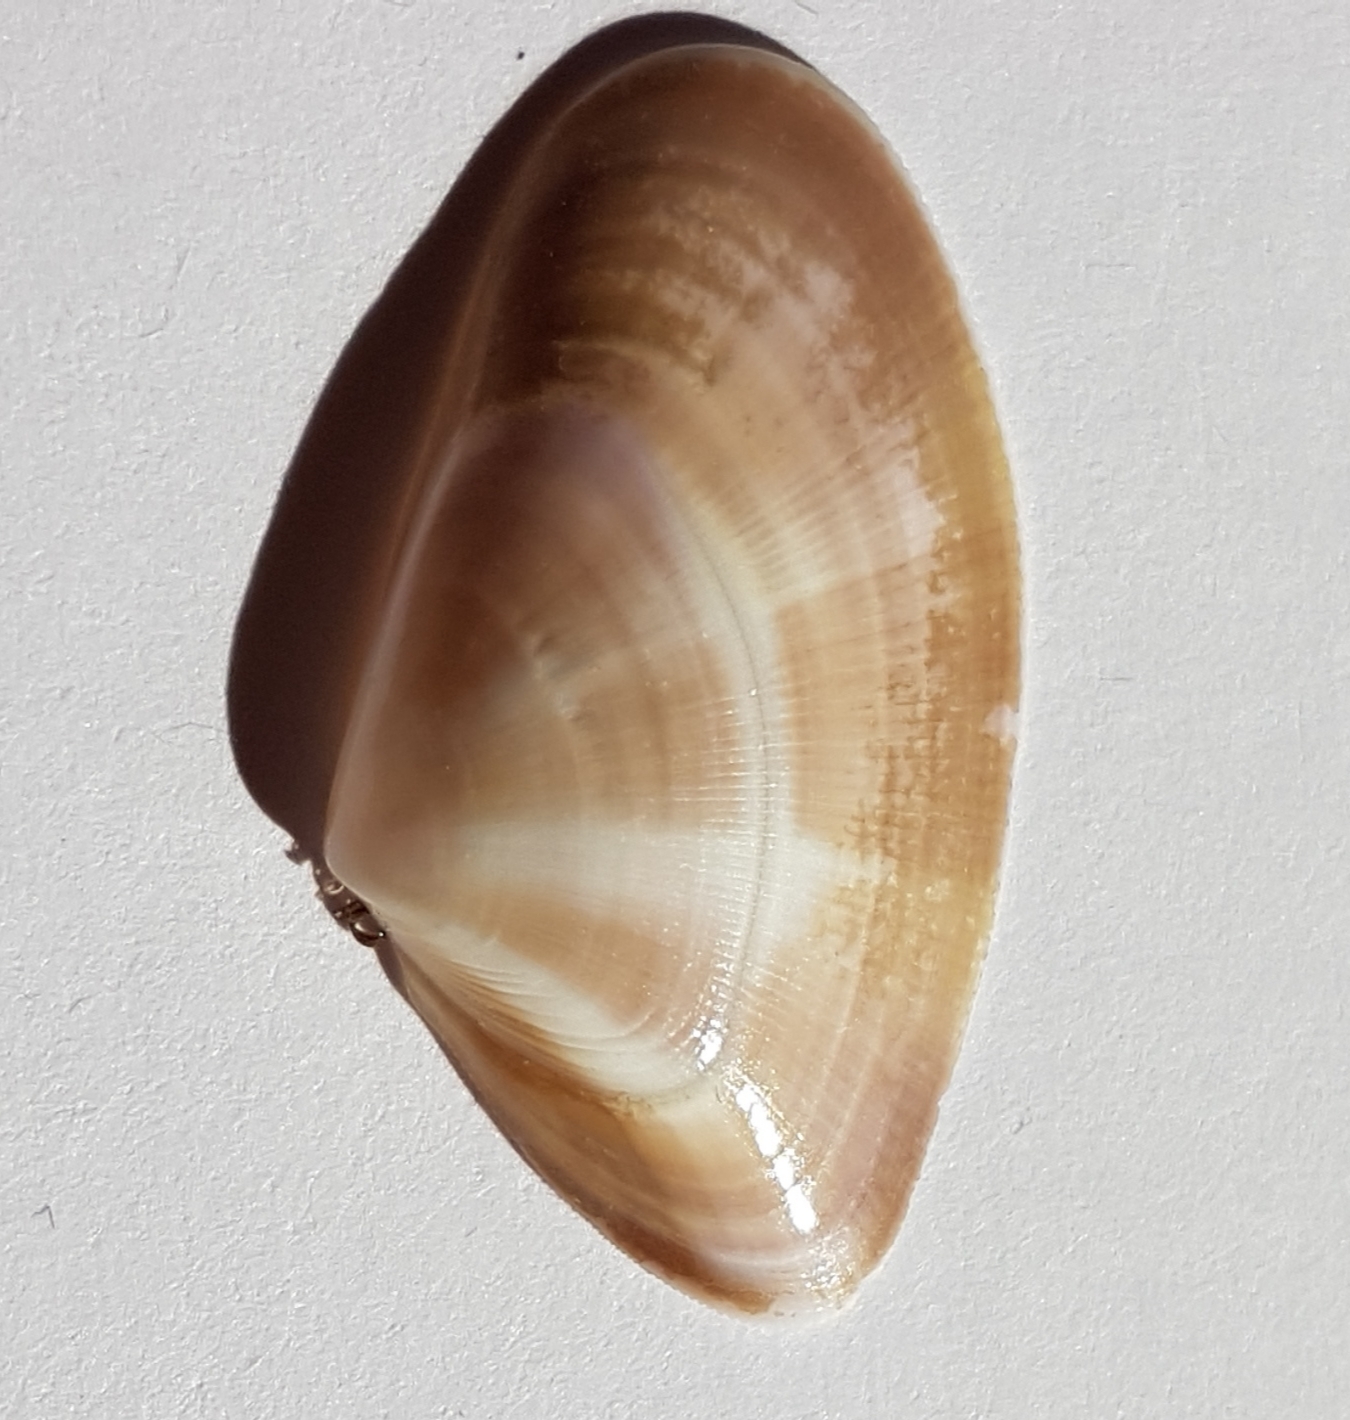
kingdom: Animalia
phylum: Mollusca
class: Bivalvia
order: Cardiida
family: Donacidae
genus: Donax
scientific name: Donax vittatus
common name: Banded wedge-shell
